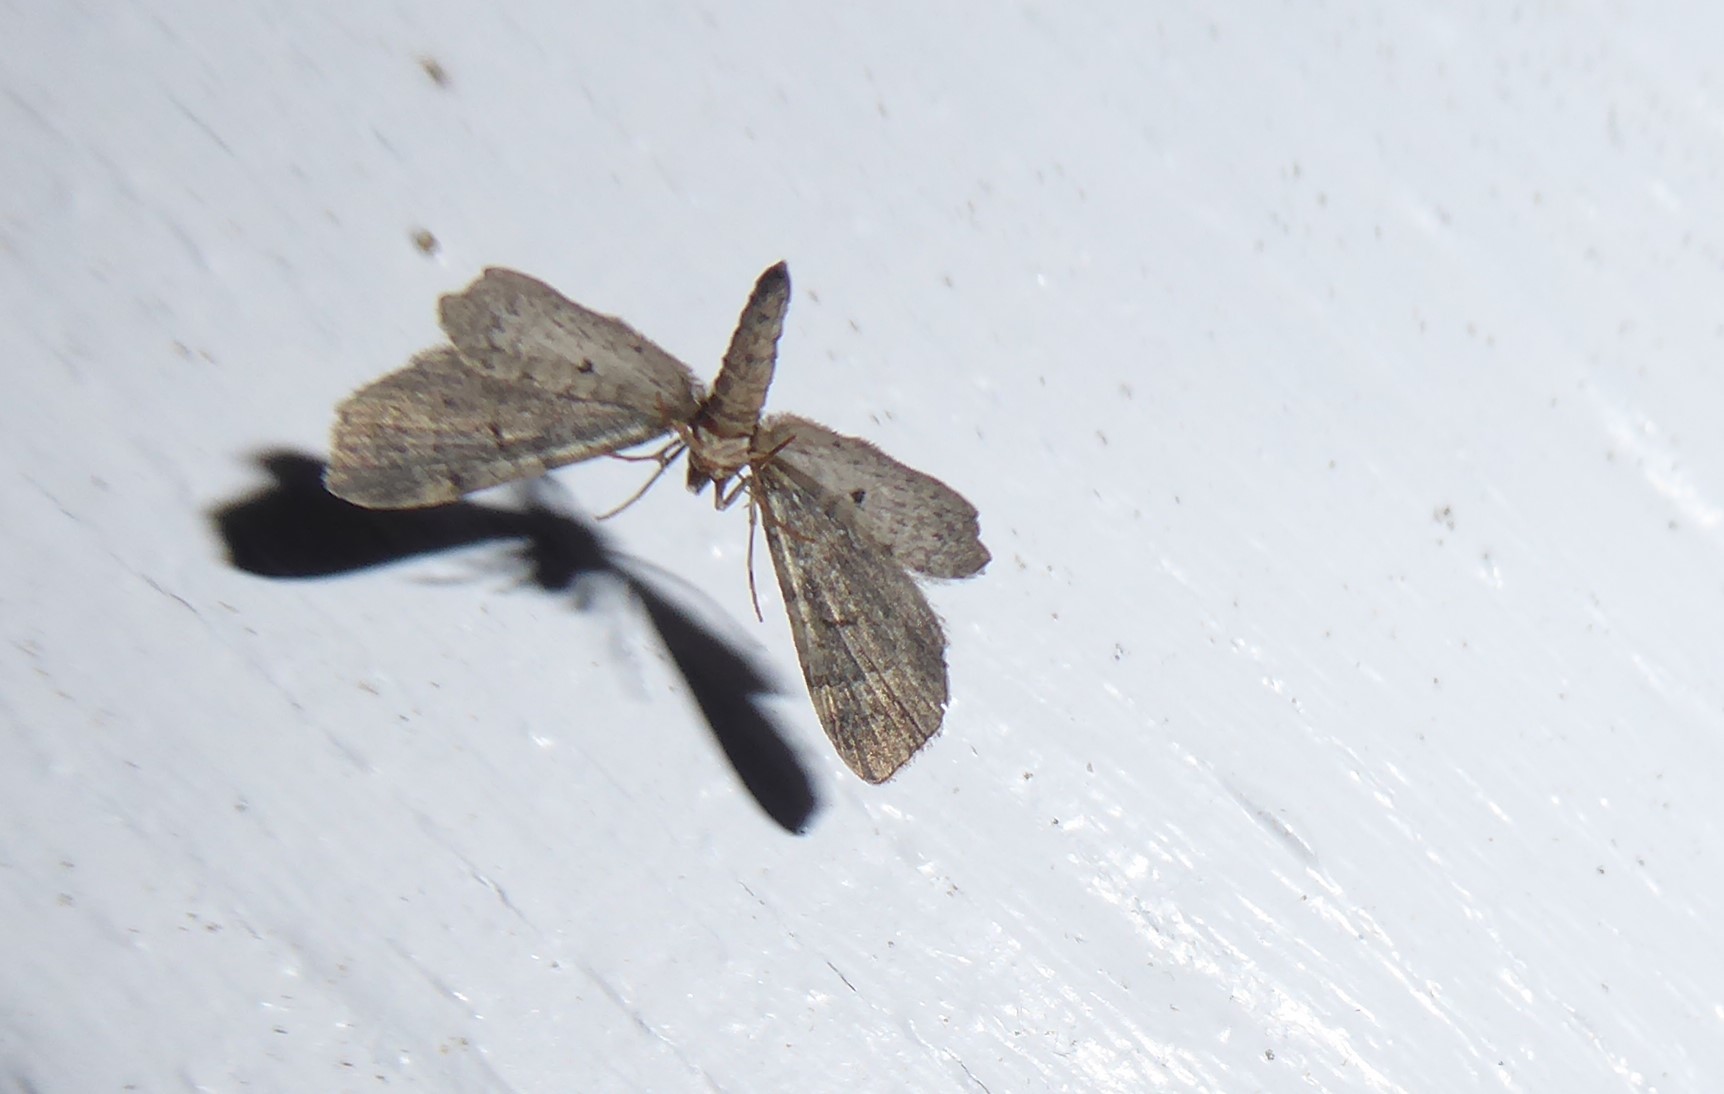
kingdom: Animalia
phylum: Arthropoda
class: Insecta
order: Lepidoptera
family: Geometridae
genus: Idaea
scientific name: Idaea mutanda
